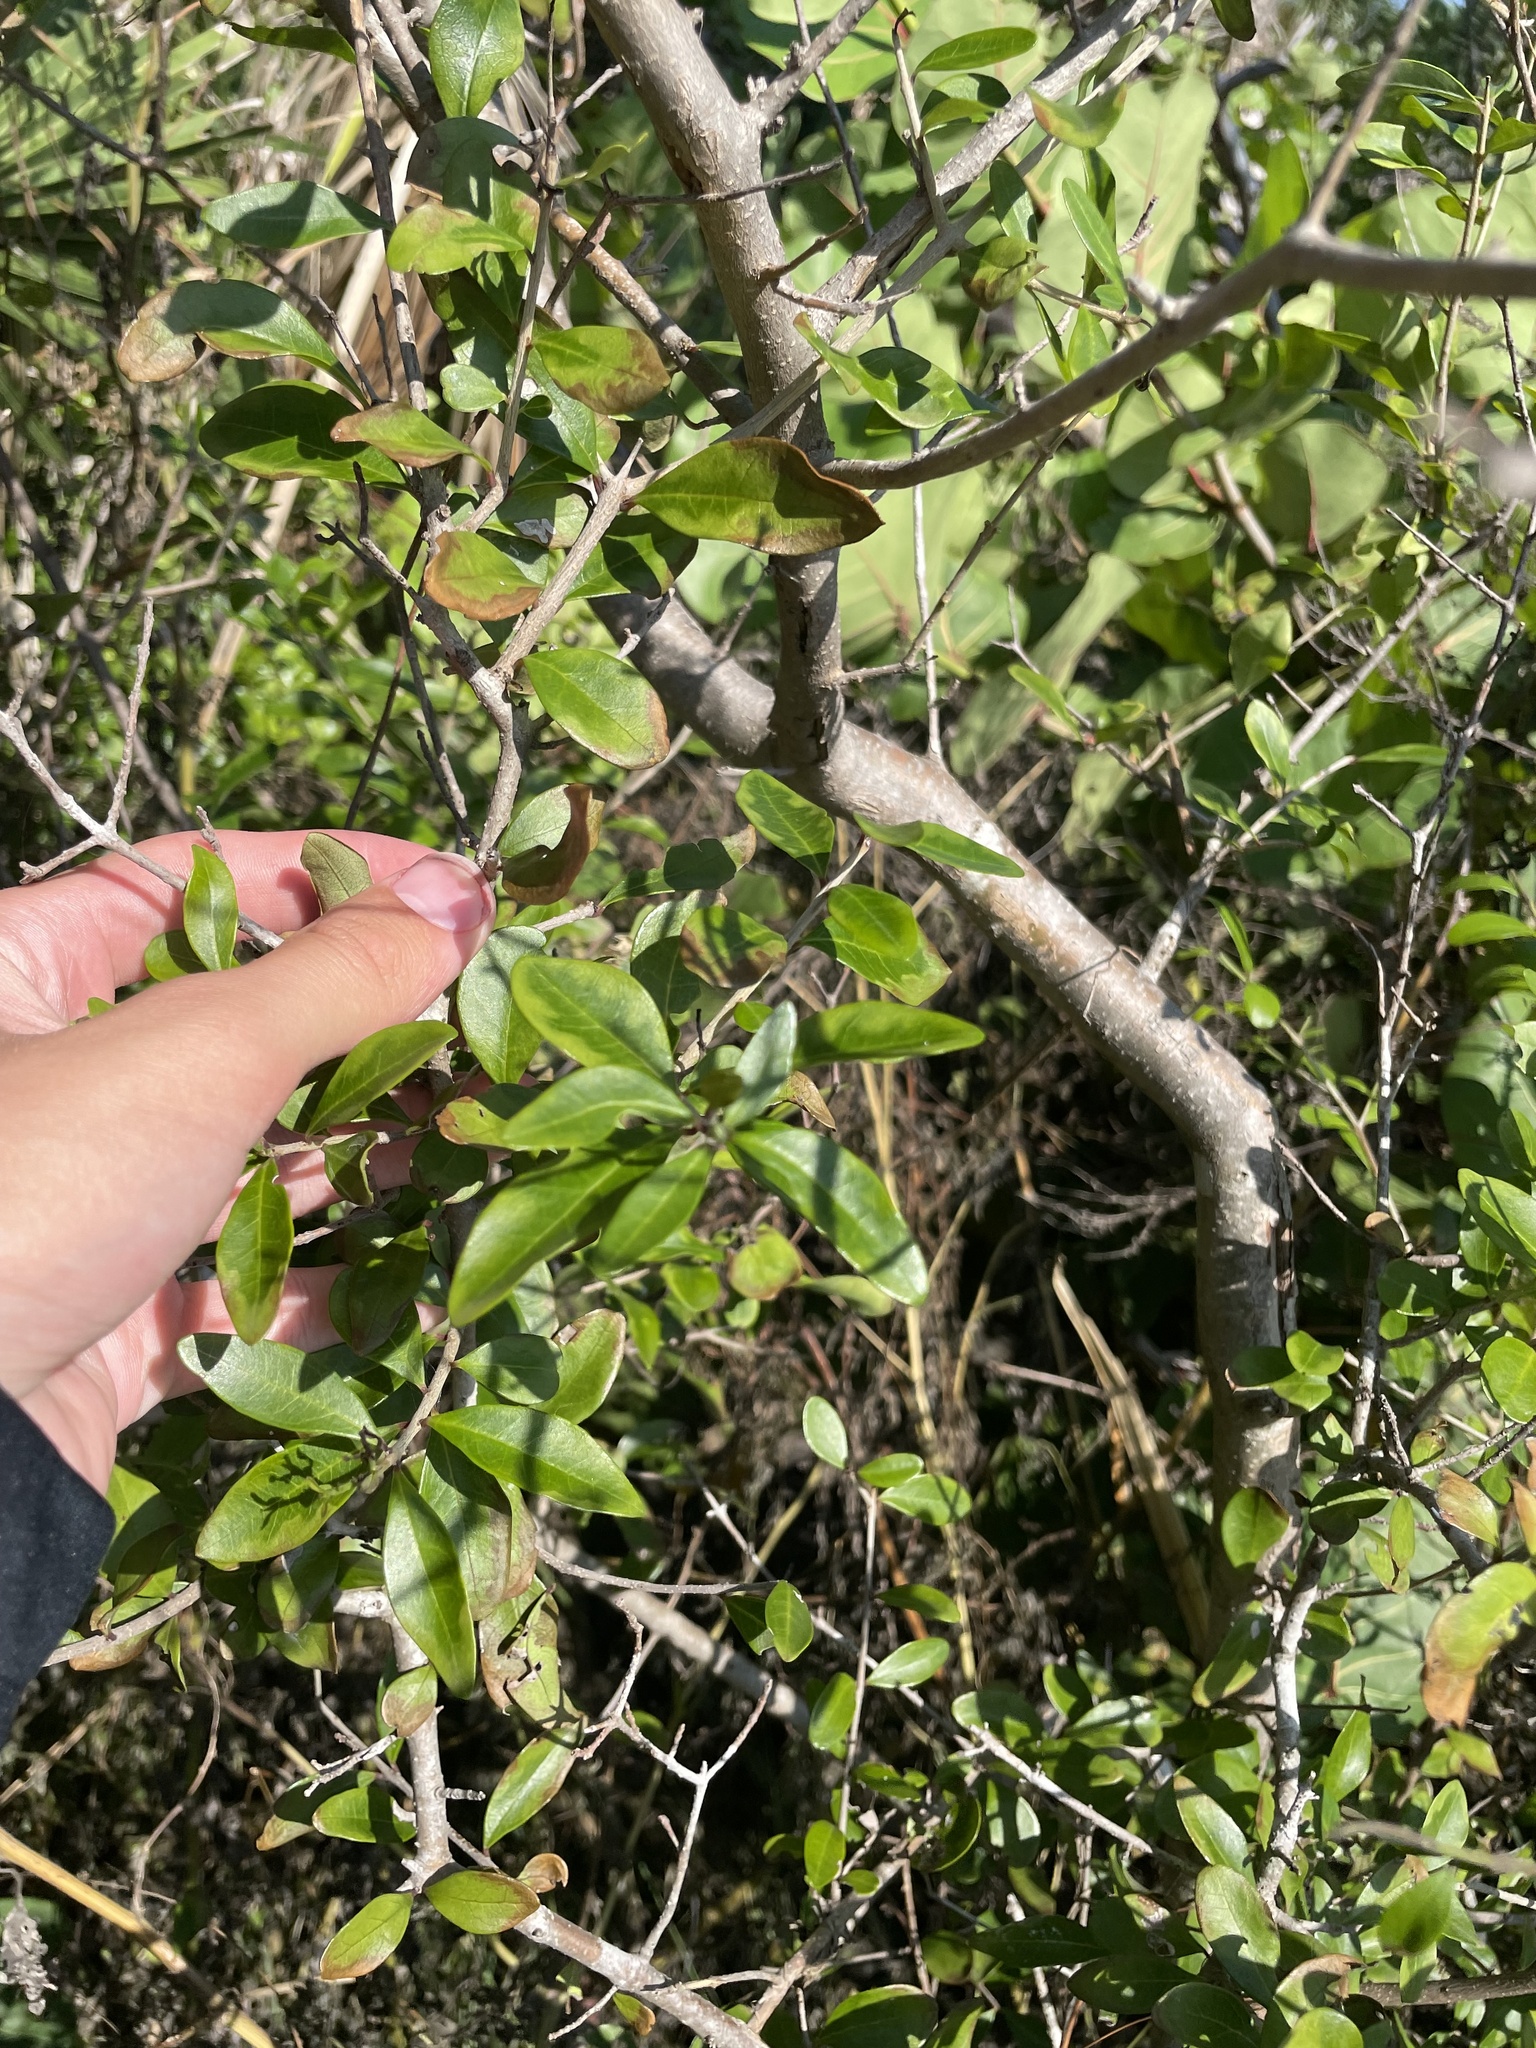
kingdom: Plantae
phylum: Tracheophyta
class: Magnoliopsida
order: Lamiales
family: Oleaceae
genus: Forestiera
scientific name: Forestiera segregata
